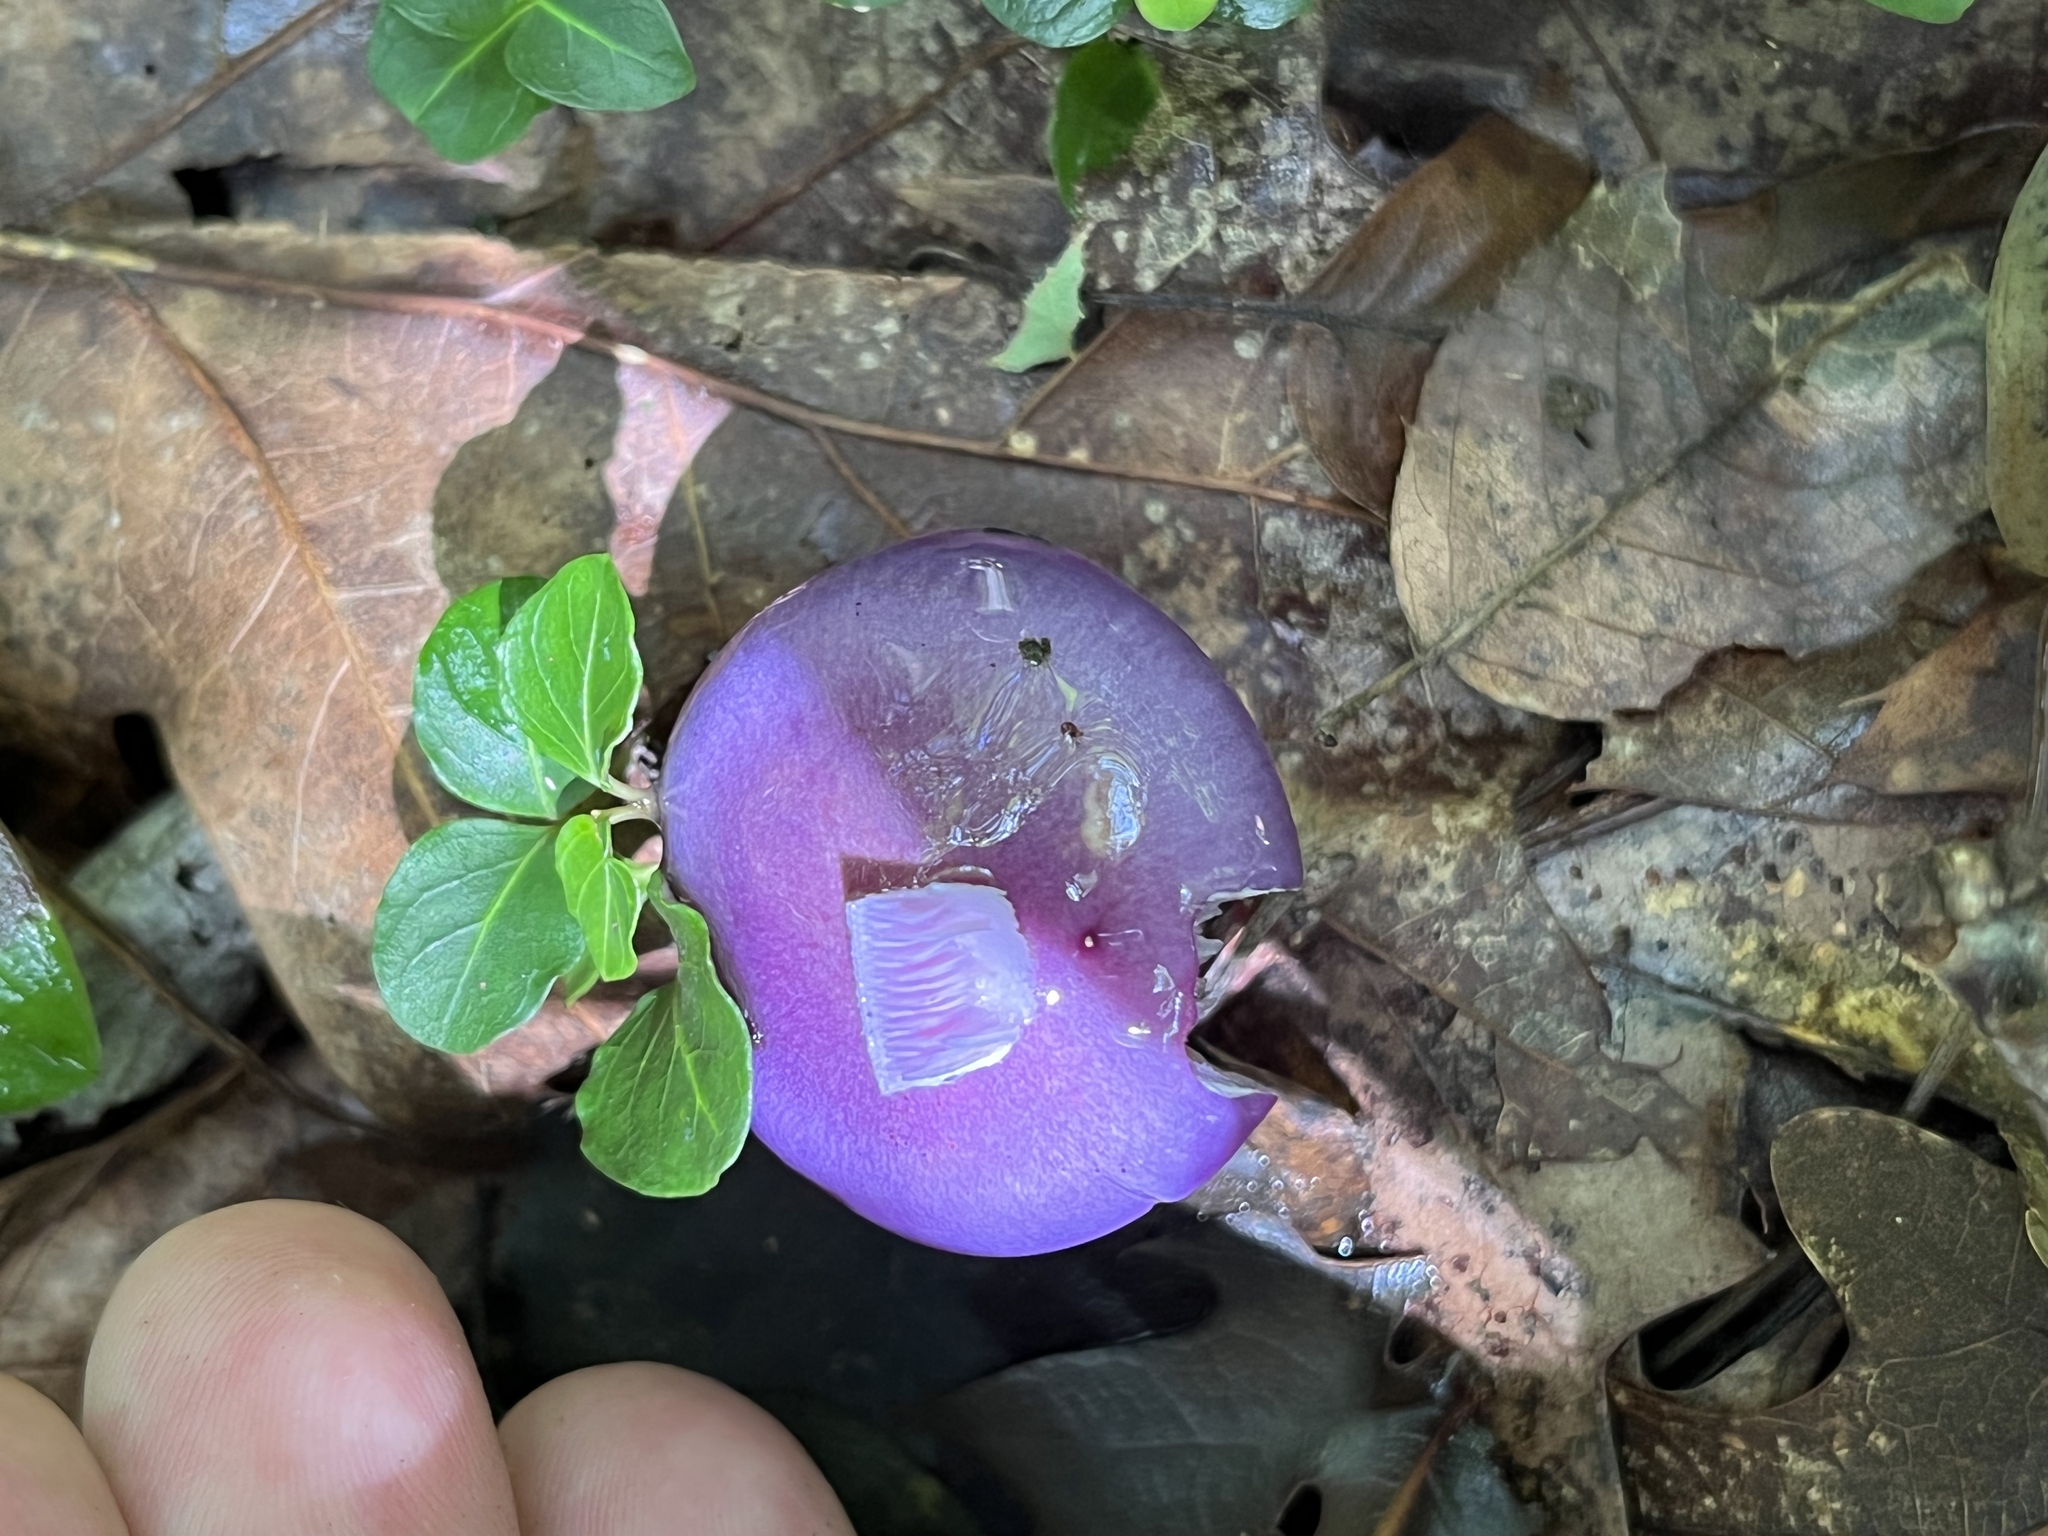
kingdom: Fungi
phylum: Basidiomycota
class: Agaricomycetes
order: Agaricales
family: Cortinariaceae
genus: Cortinarius
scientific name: Cortinarius iodes
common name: Viscid violet cort
